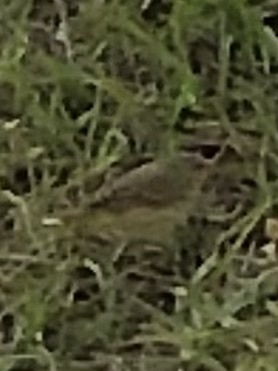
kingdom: Animalia
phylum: Chordata
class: Aves
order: Passeriformes
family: Parulidae
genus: Setophaga
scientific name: Setophaga palmarum
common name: Palm warbler
